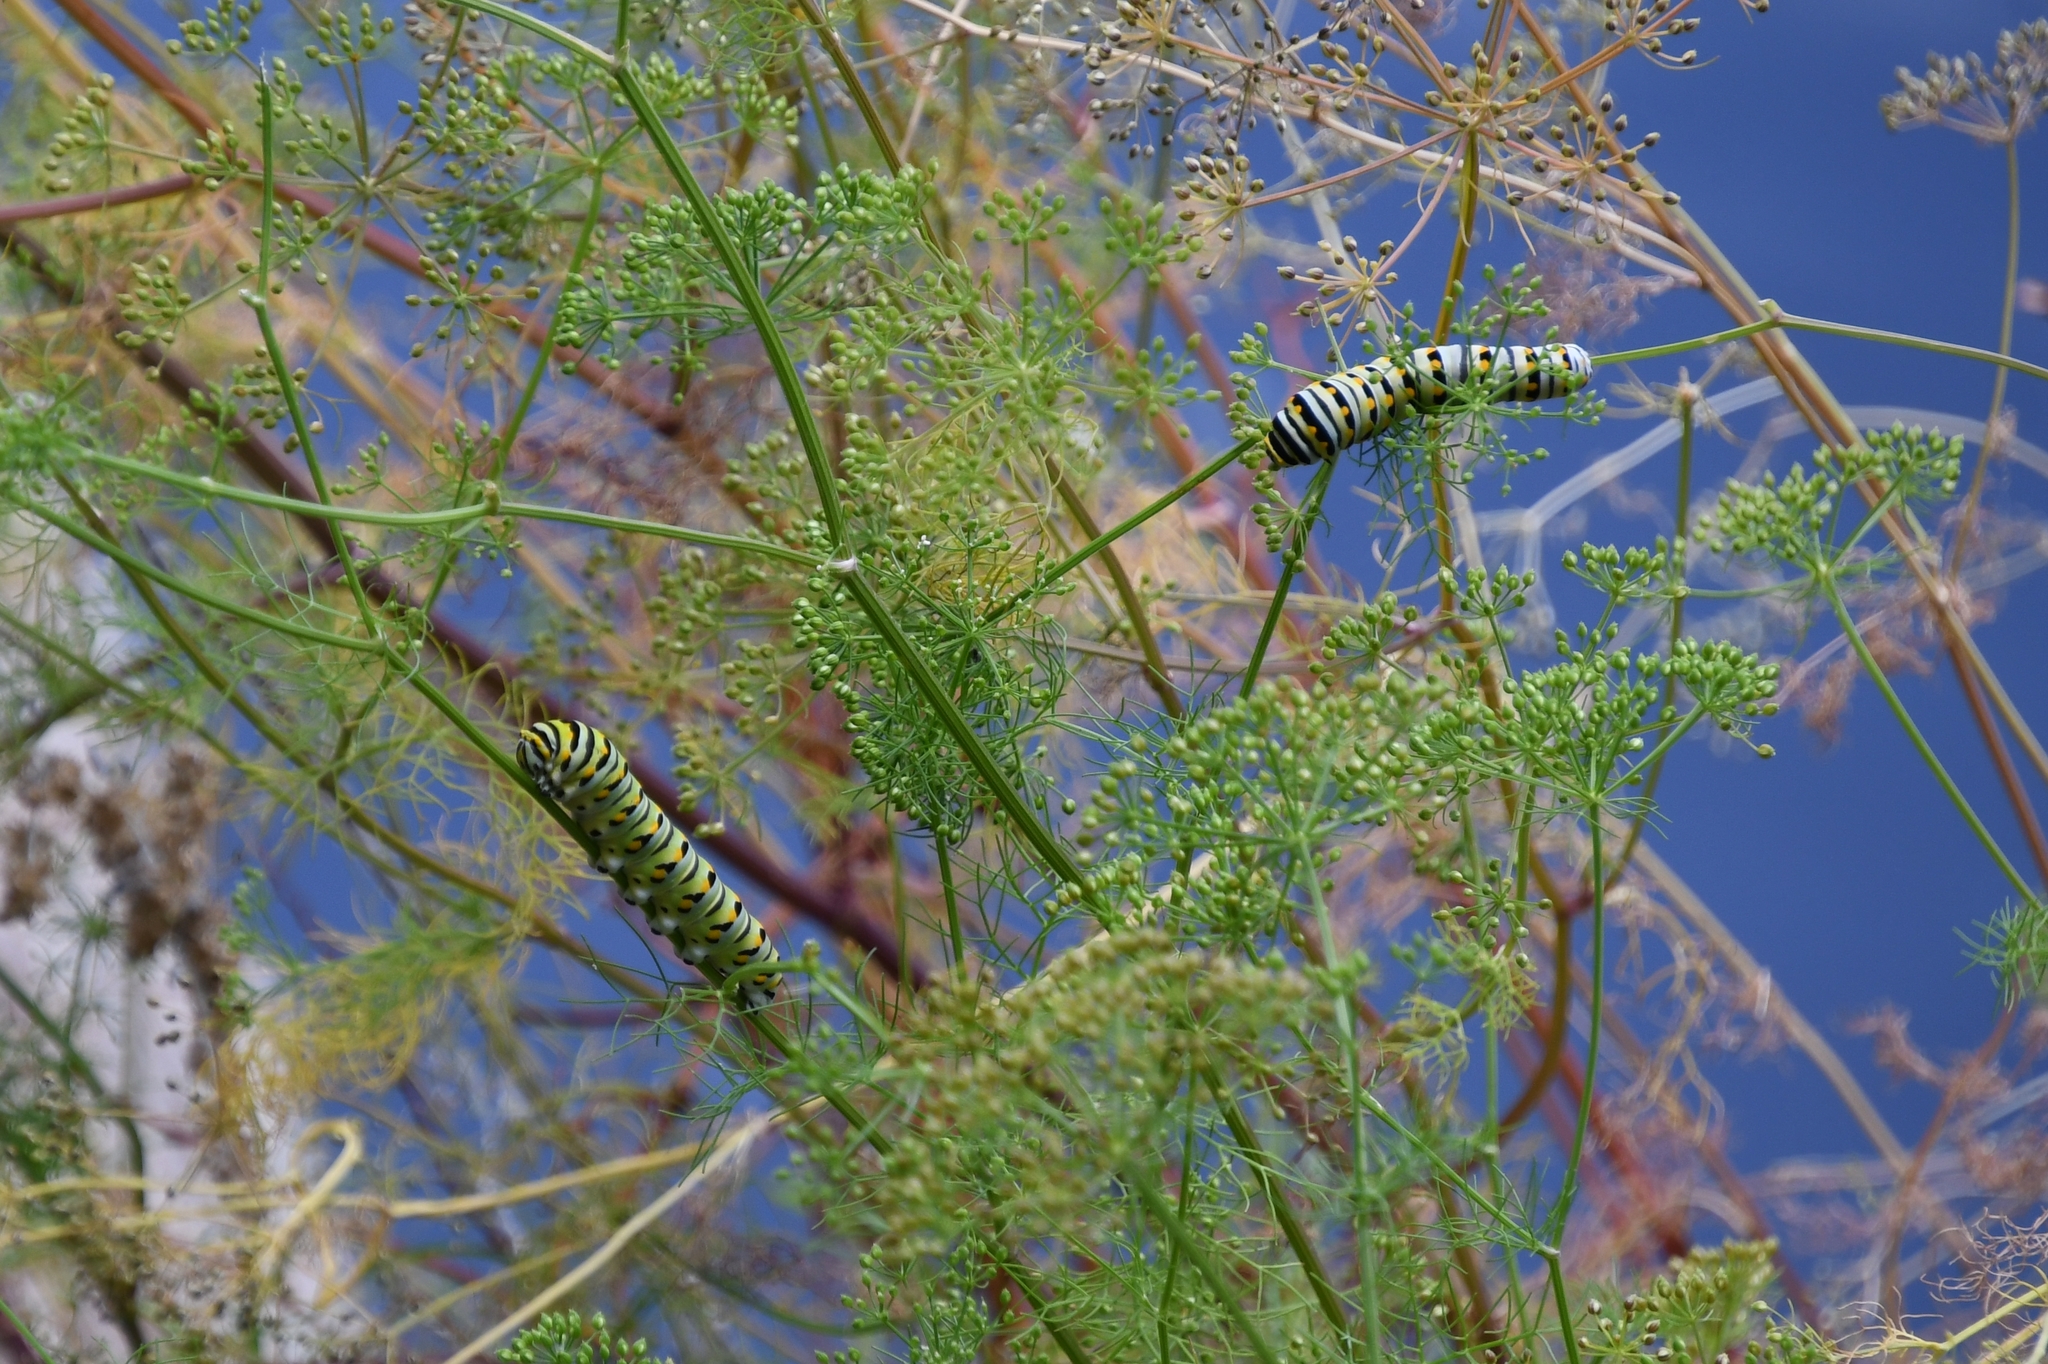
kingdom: Animalia
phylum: Arthropoda
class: Insecta
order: Lepidoptera
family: Papilionidae
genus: Papilio
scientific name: Papilio polyxenes
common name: Black swallowtail
